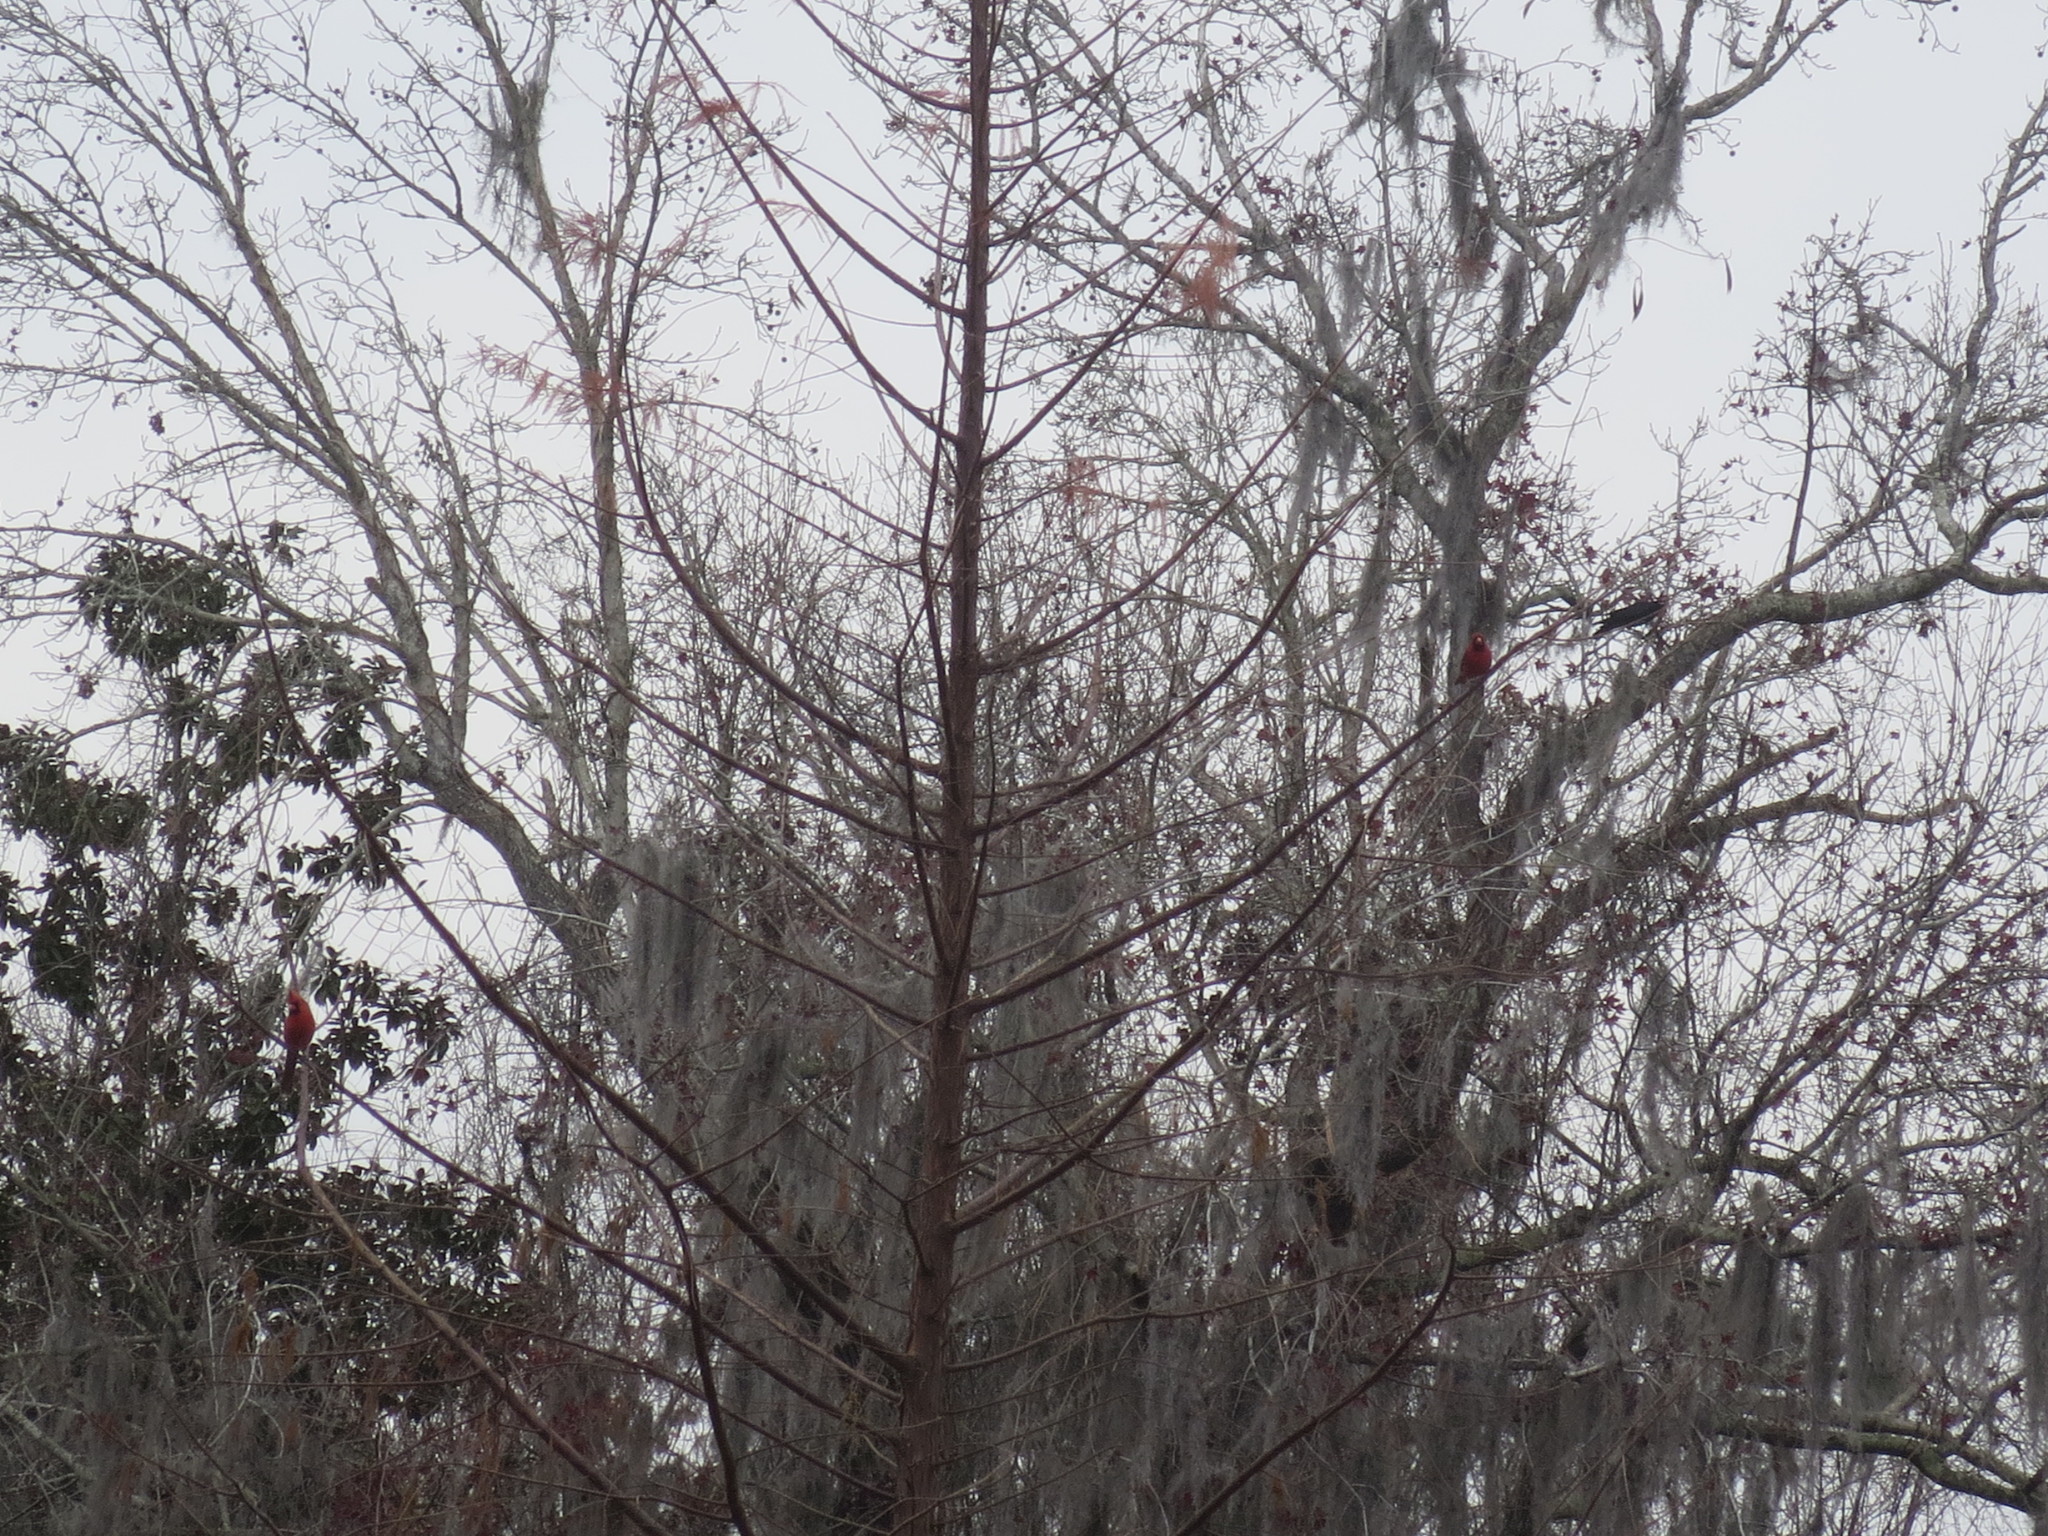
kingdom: Animalia
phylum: Chordata
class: Aves
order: Passeriformes
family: Cardinalidae
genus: Cardinalis
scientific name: Cardinalis cardinalis
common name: Northern cardinal
